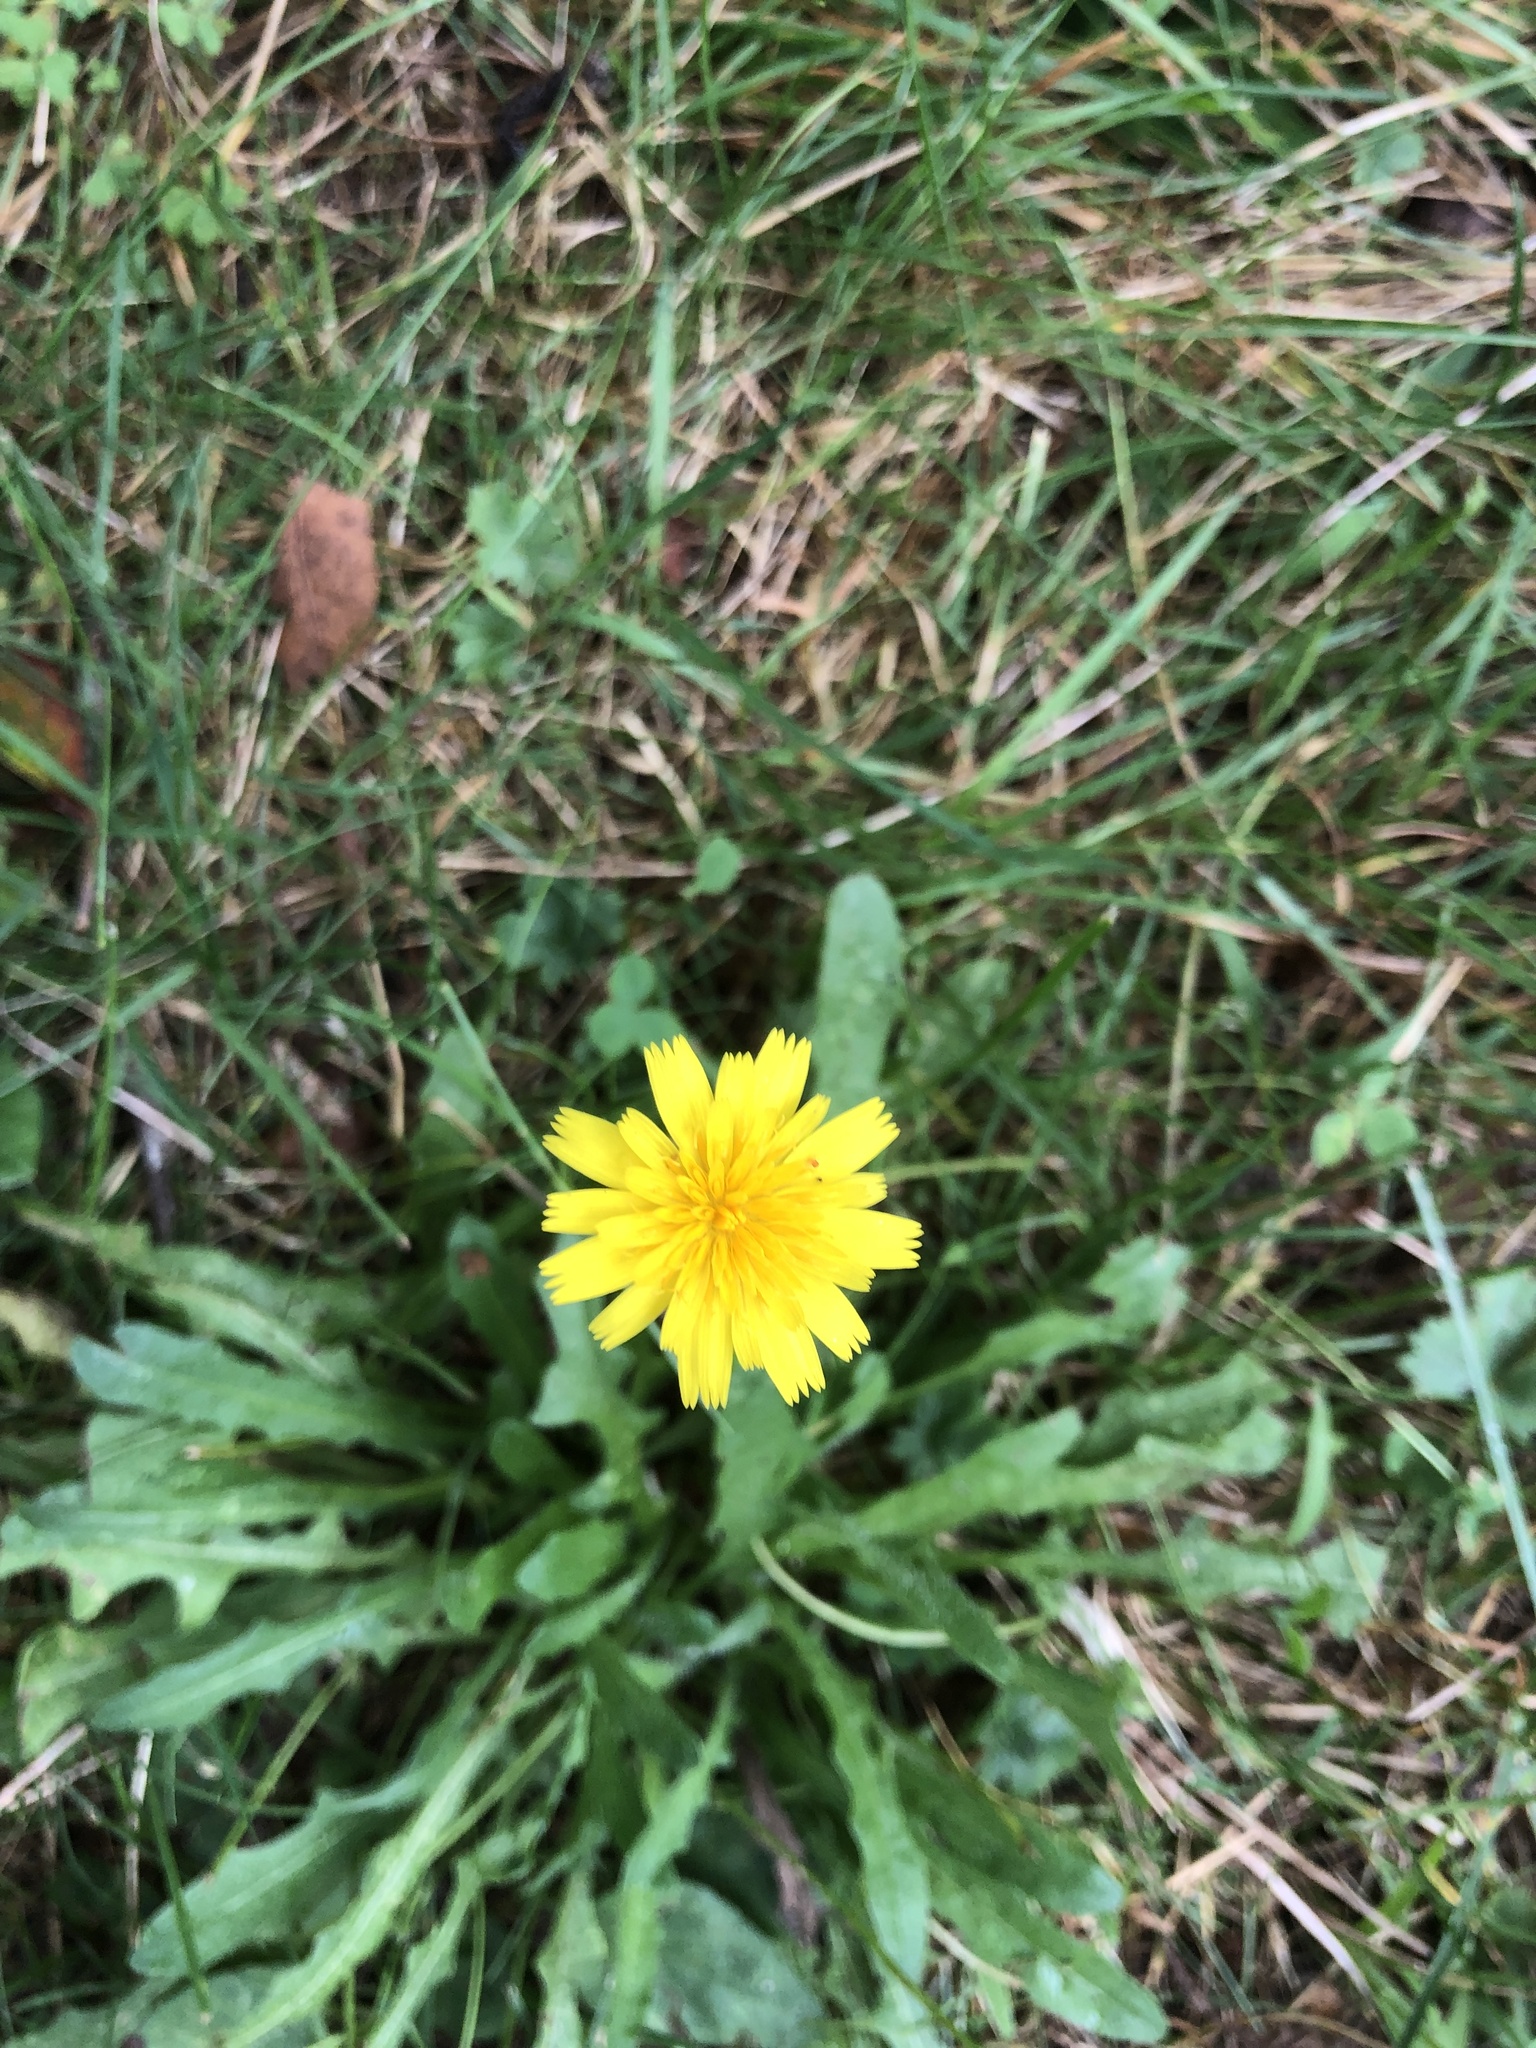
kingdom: Plantae
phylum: Tracheophyta
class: Magnoliopsida
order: Asterales
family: Asteraceae
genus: Hypochaeris
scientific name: Hypochaeris radicata
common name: Flatweed
